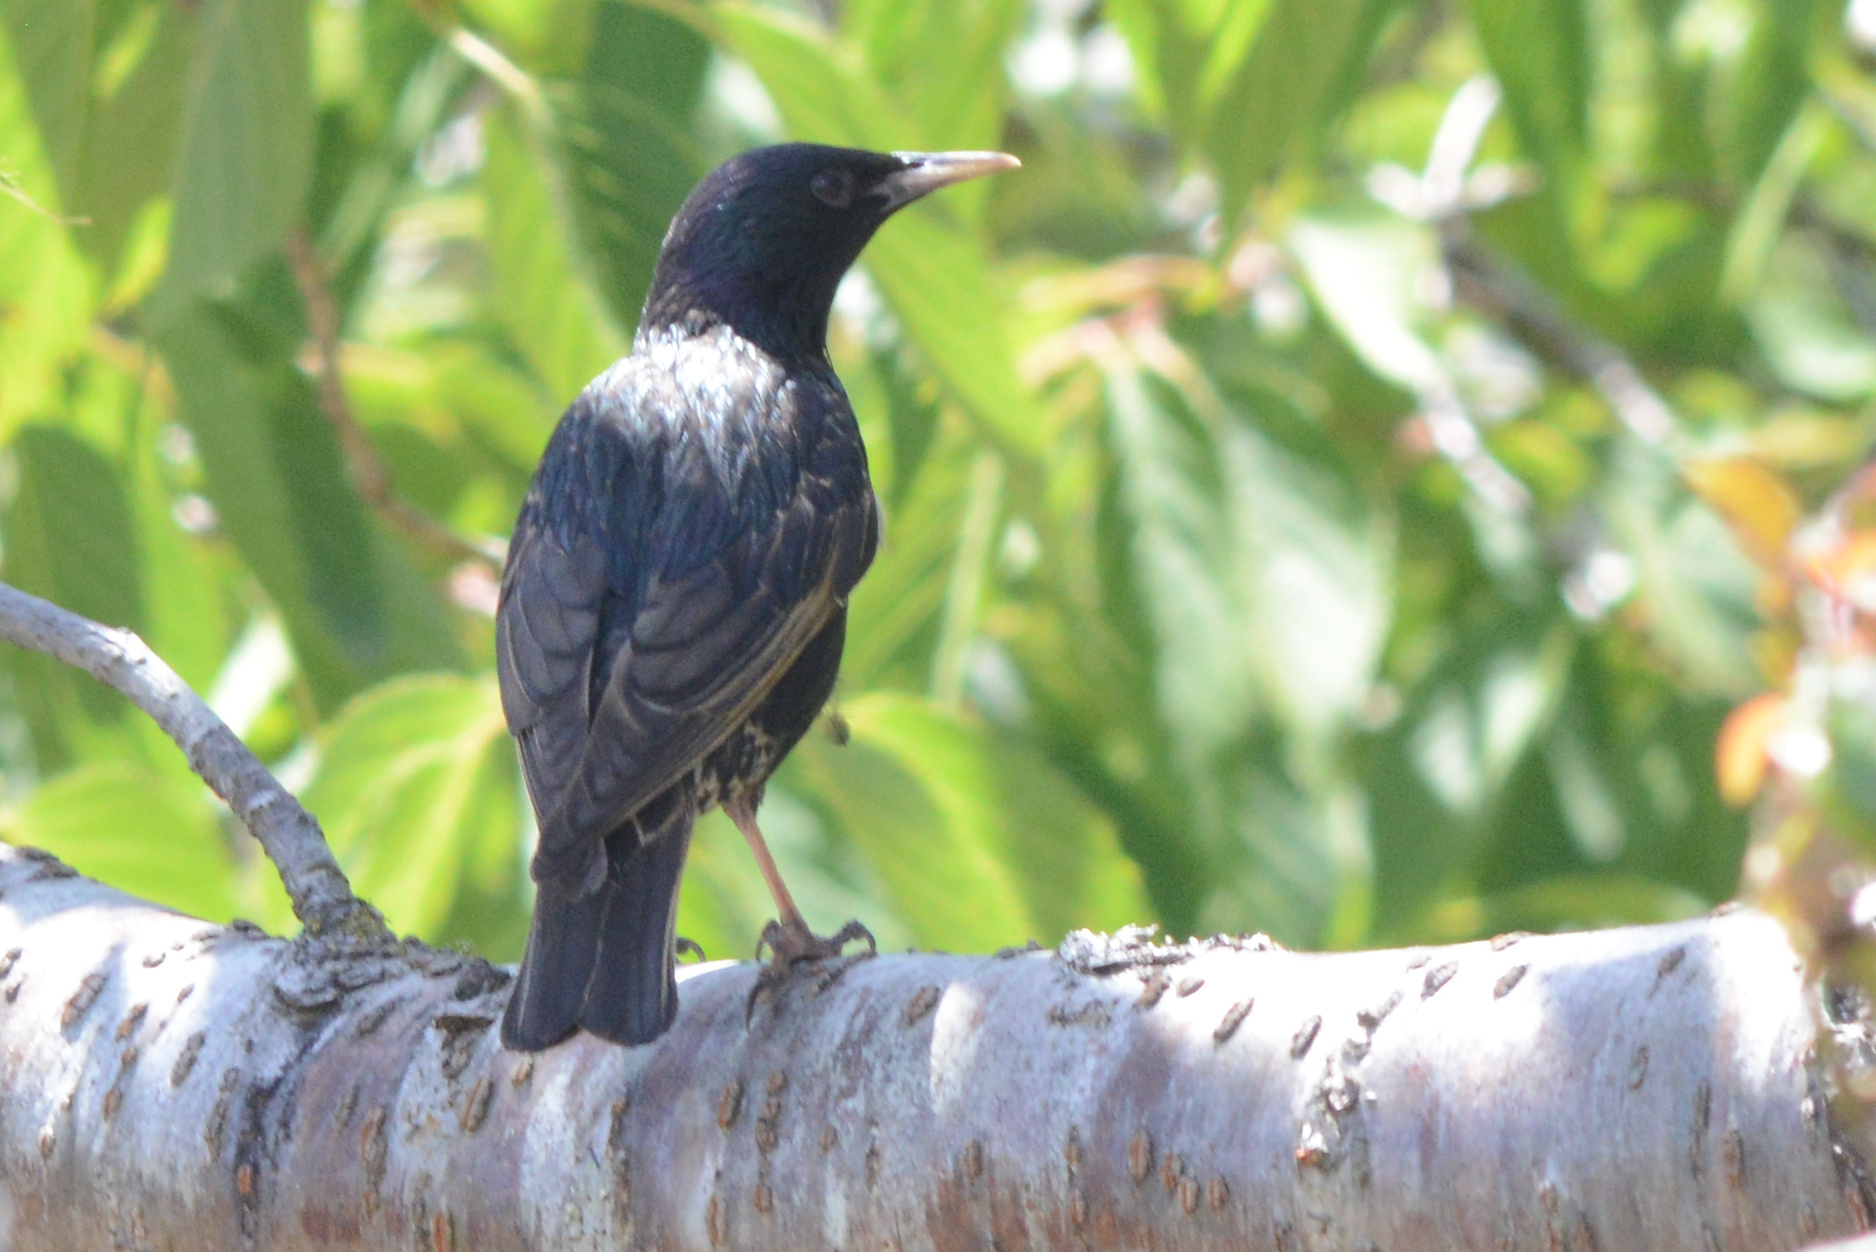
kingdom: Animalia
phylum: Chordata
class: Aves
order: Passeriformes
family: Sturnidae
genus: Sturnus
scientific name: Sturnus vulgaris
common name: Common starling
